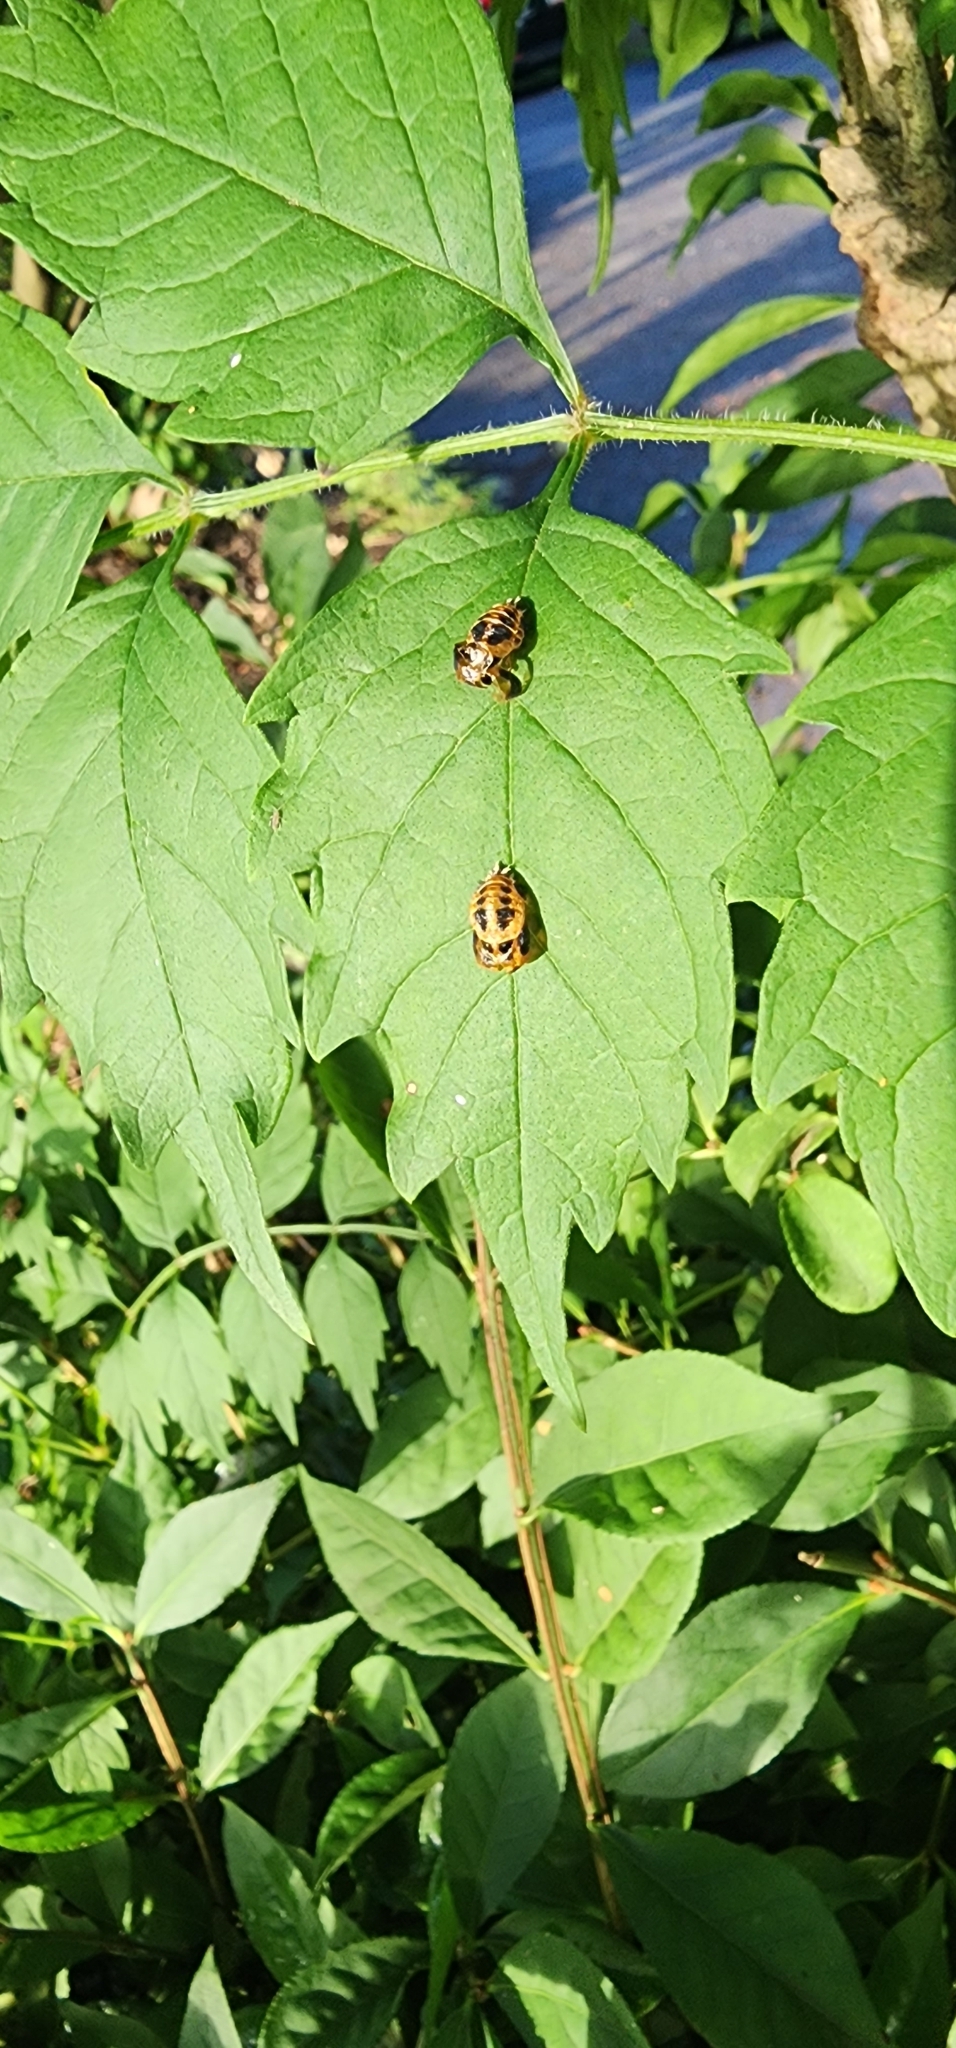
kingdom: Animalia
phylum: Arthropoda
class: Insecta
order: Coleoptera
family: Coccinellidae
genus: Harmonia
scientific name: Harmonia axyridis
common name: Harlequin ladybird
